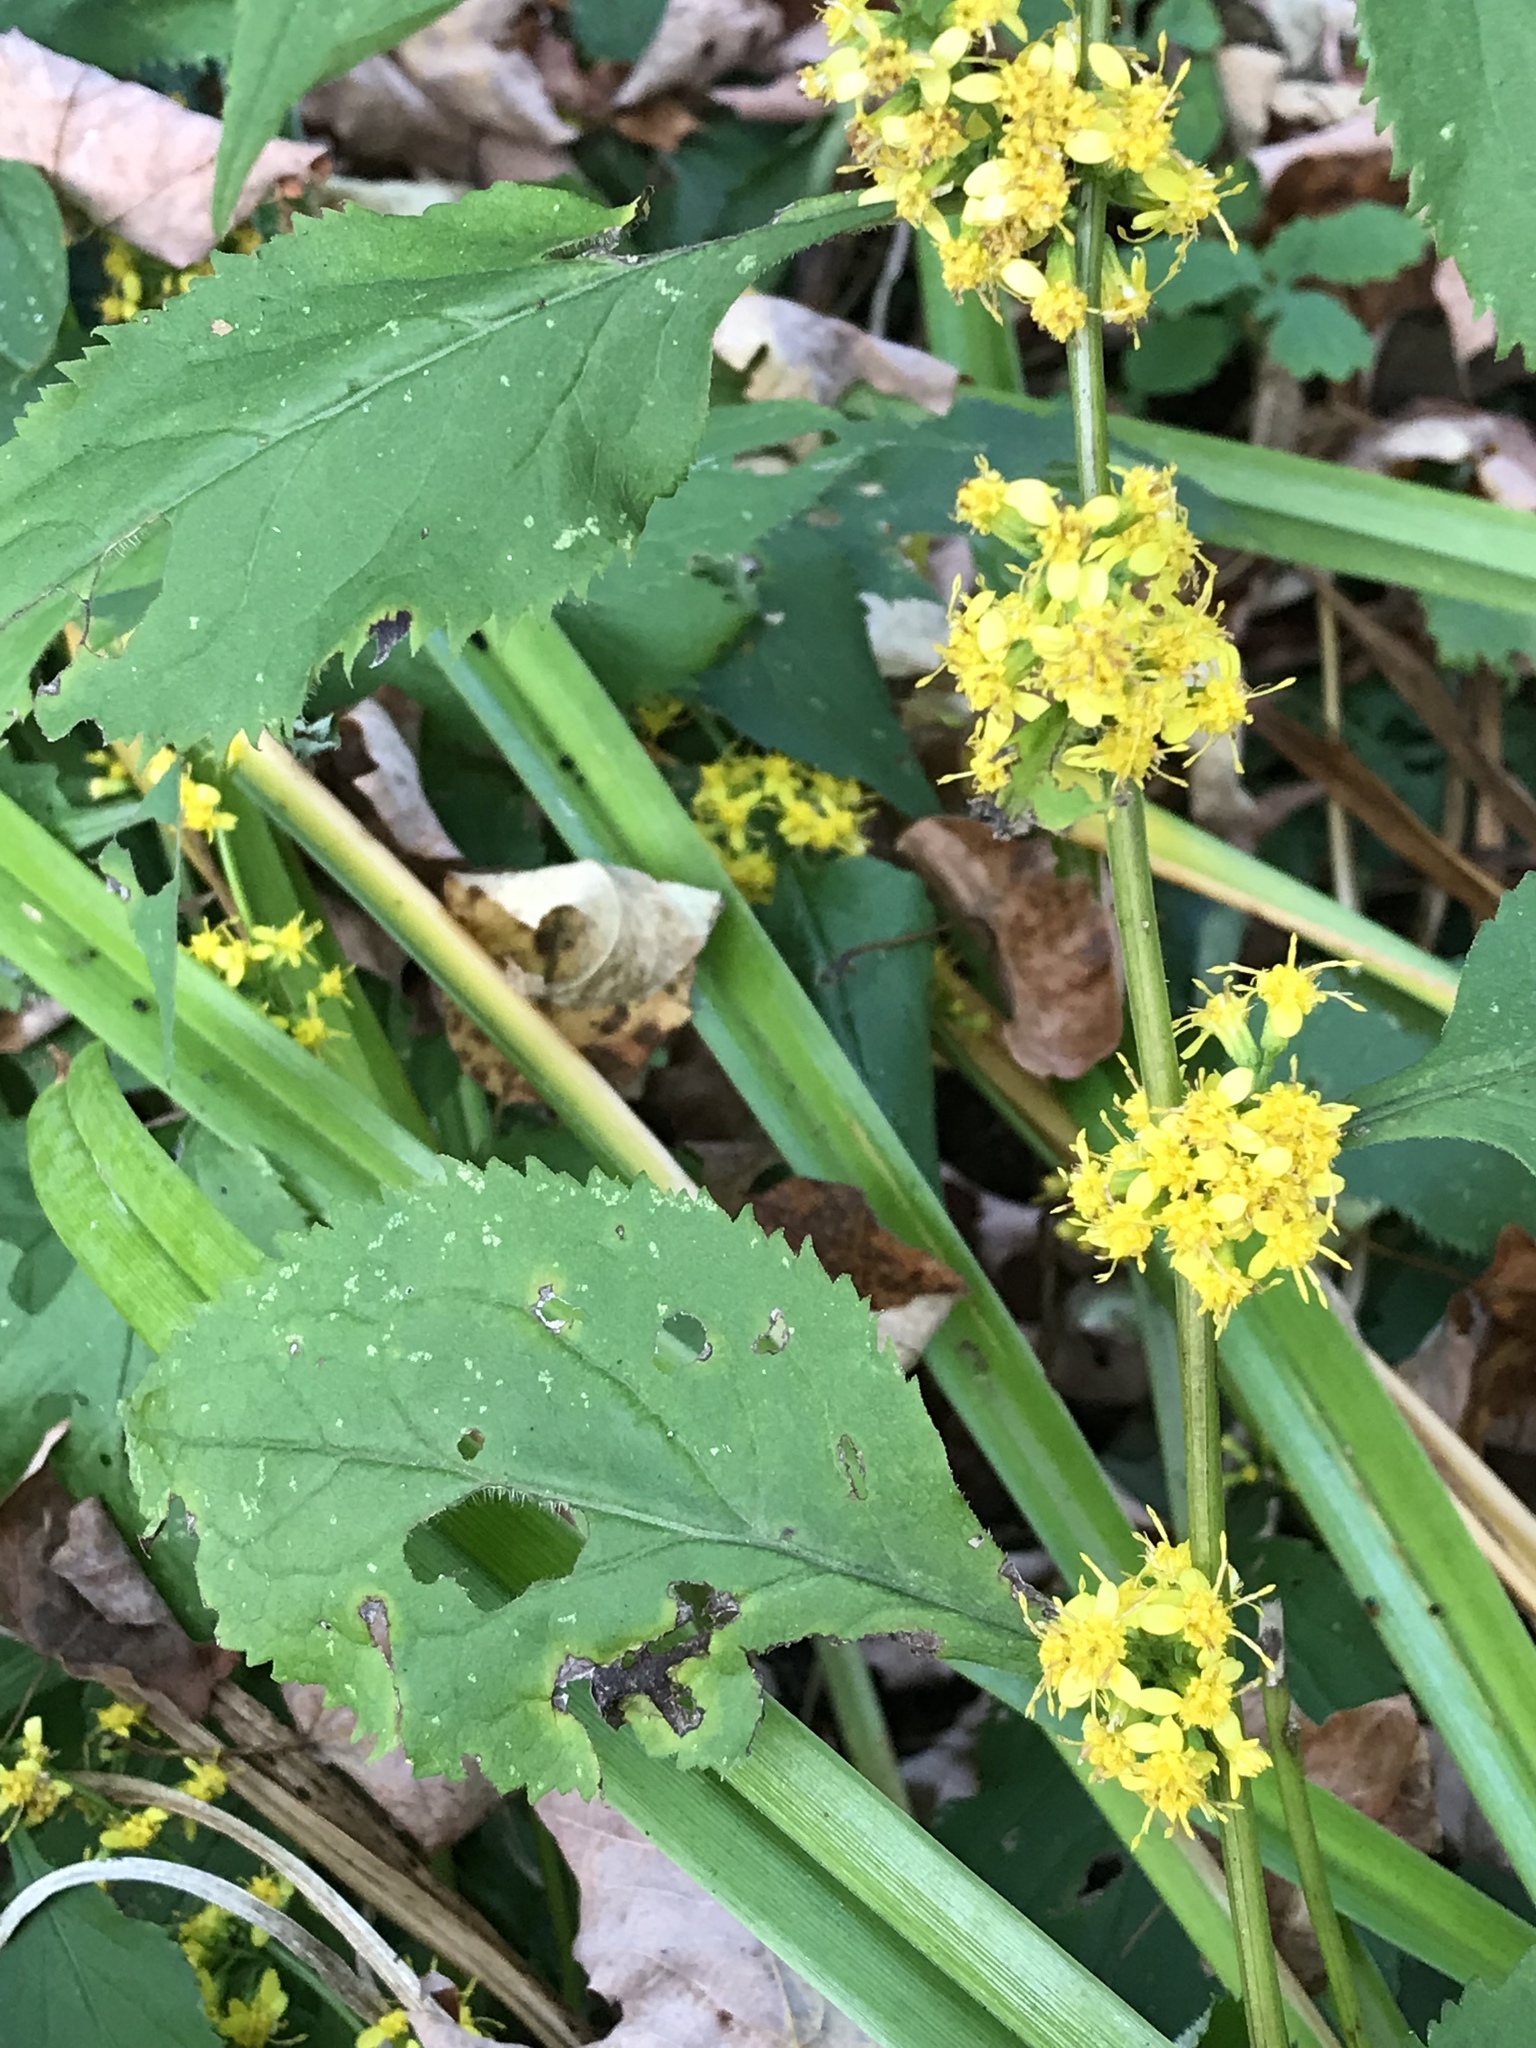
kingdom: Plantae
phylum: Tracheophyta
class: Magnoliopsida
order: Asterales
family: Asteraceae
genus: Solidago
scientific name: Solidago flexicaulis
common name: Zig-zag goldenrod
